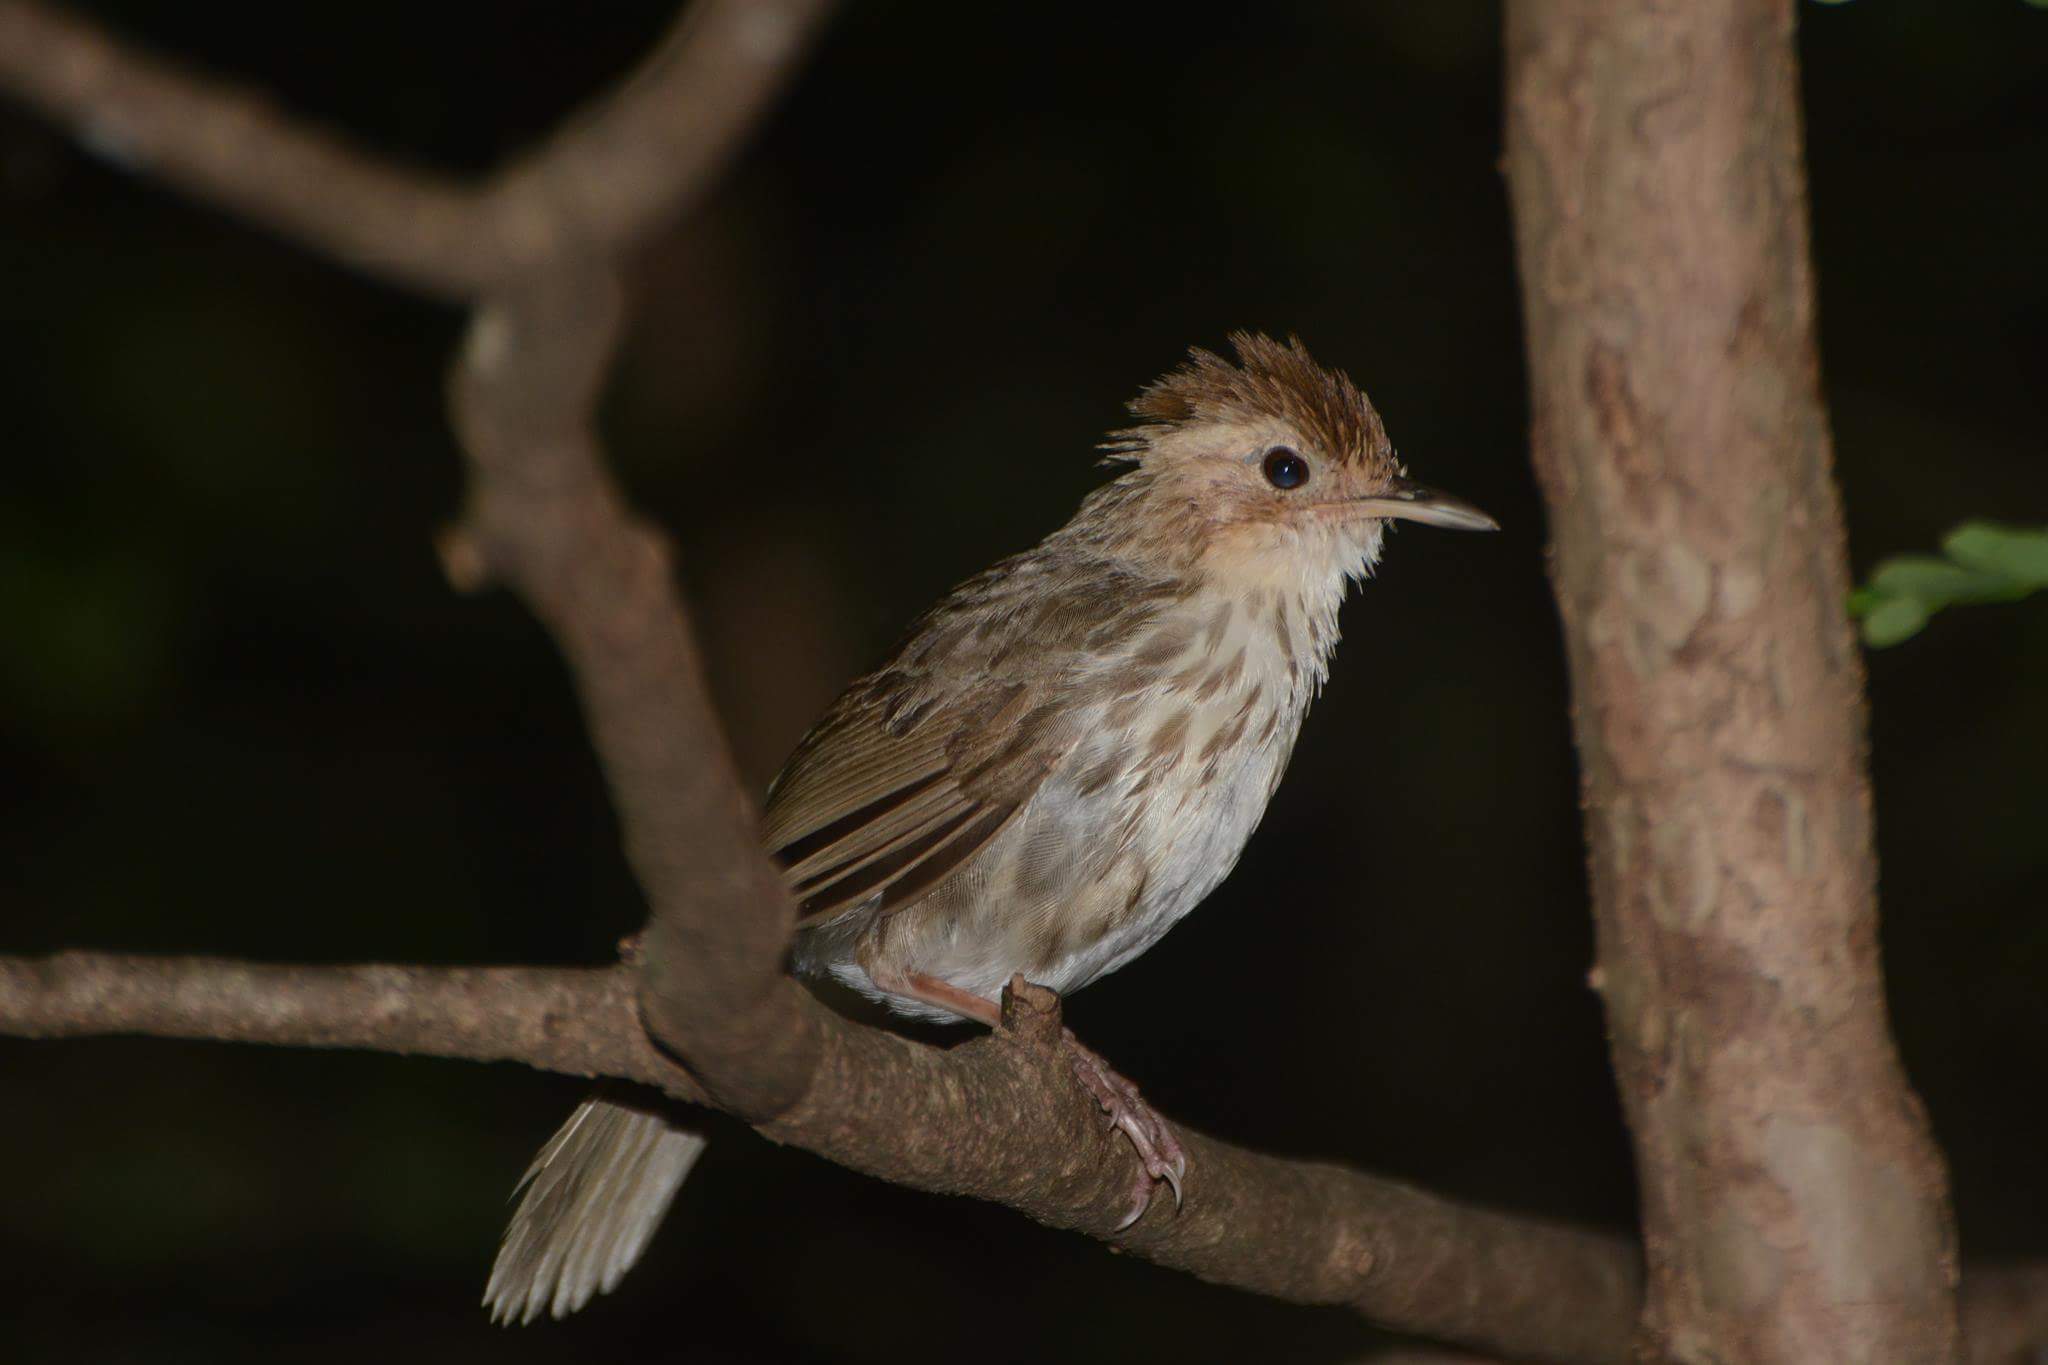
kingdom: Animalia
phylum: Chordata
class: Aves
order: Passeriformes
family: Pellorneidae
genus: Pellorneum
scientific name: Pellorneum ruficeps
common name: Puff-throated babbler
